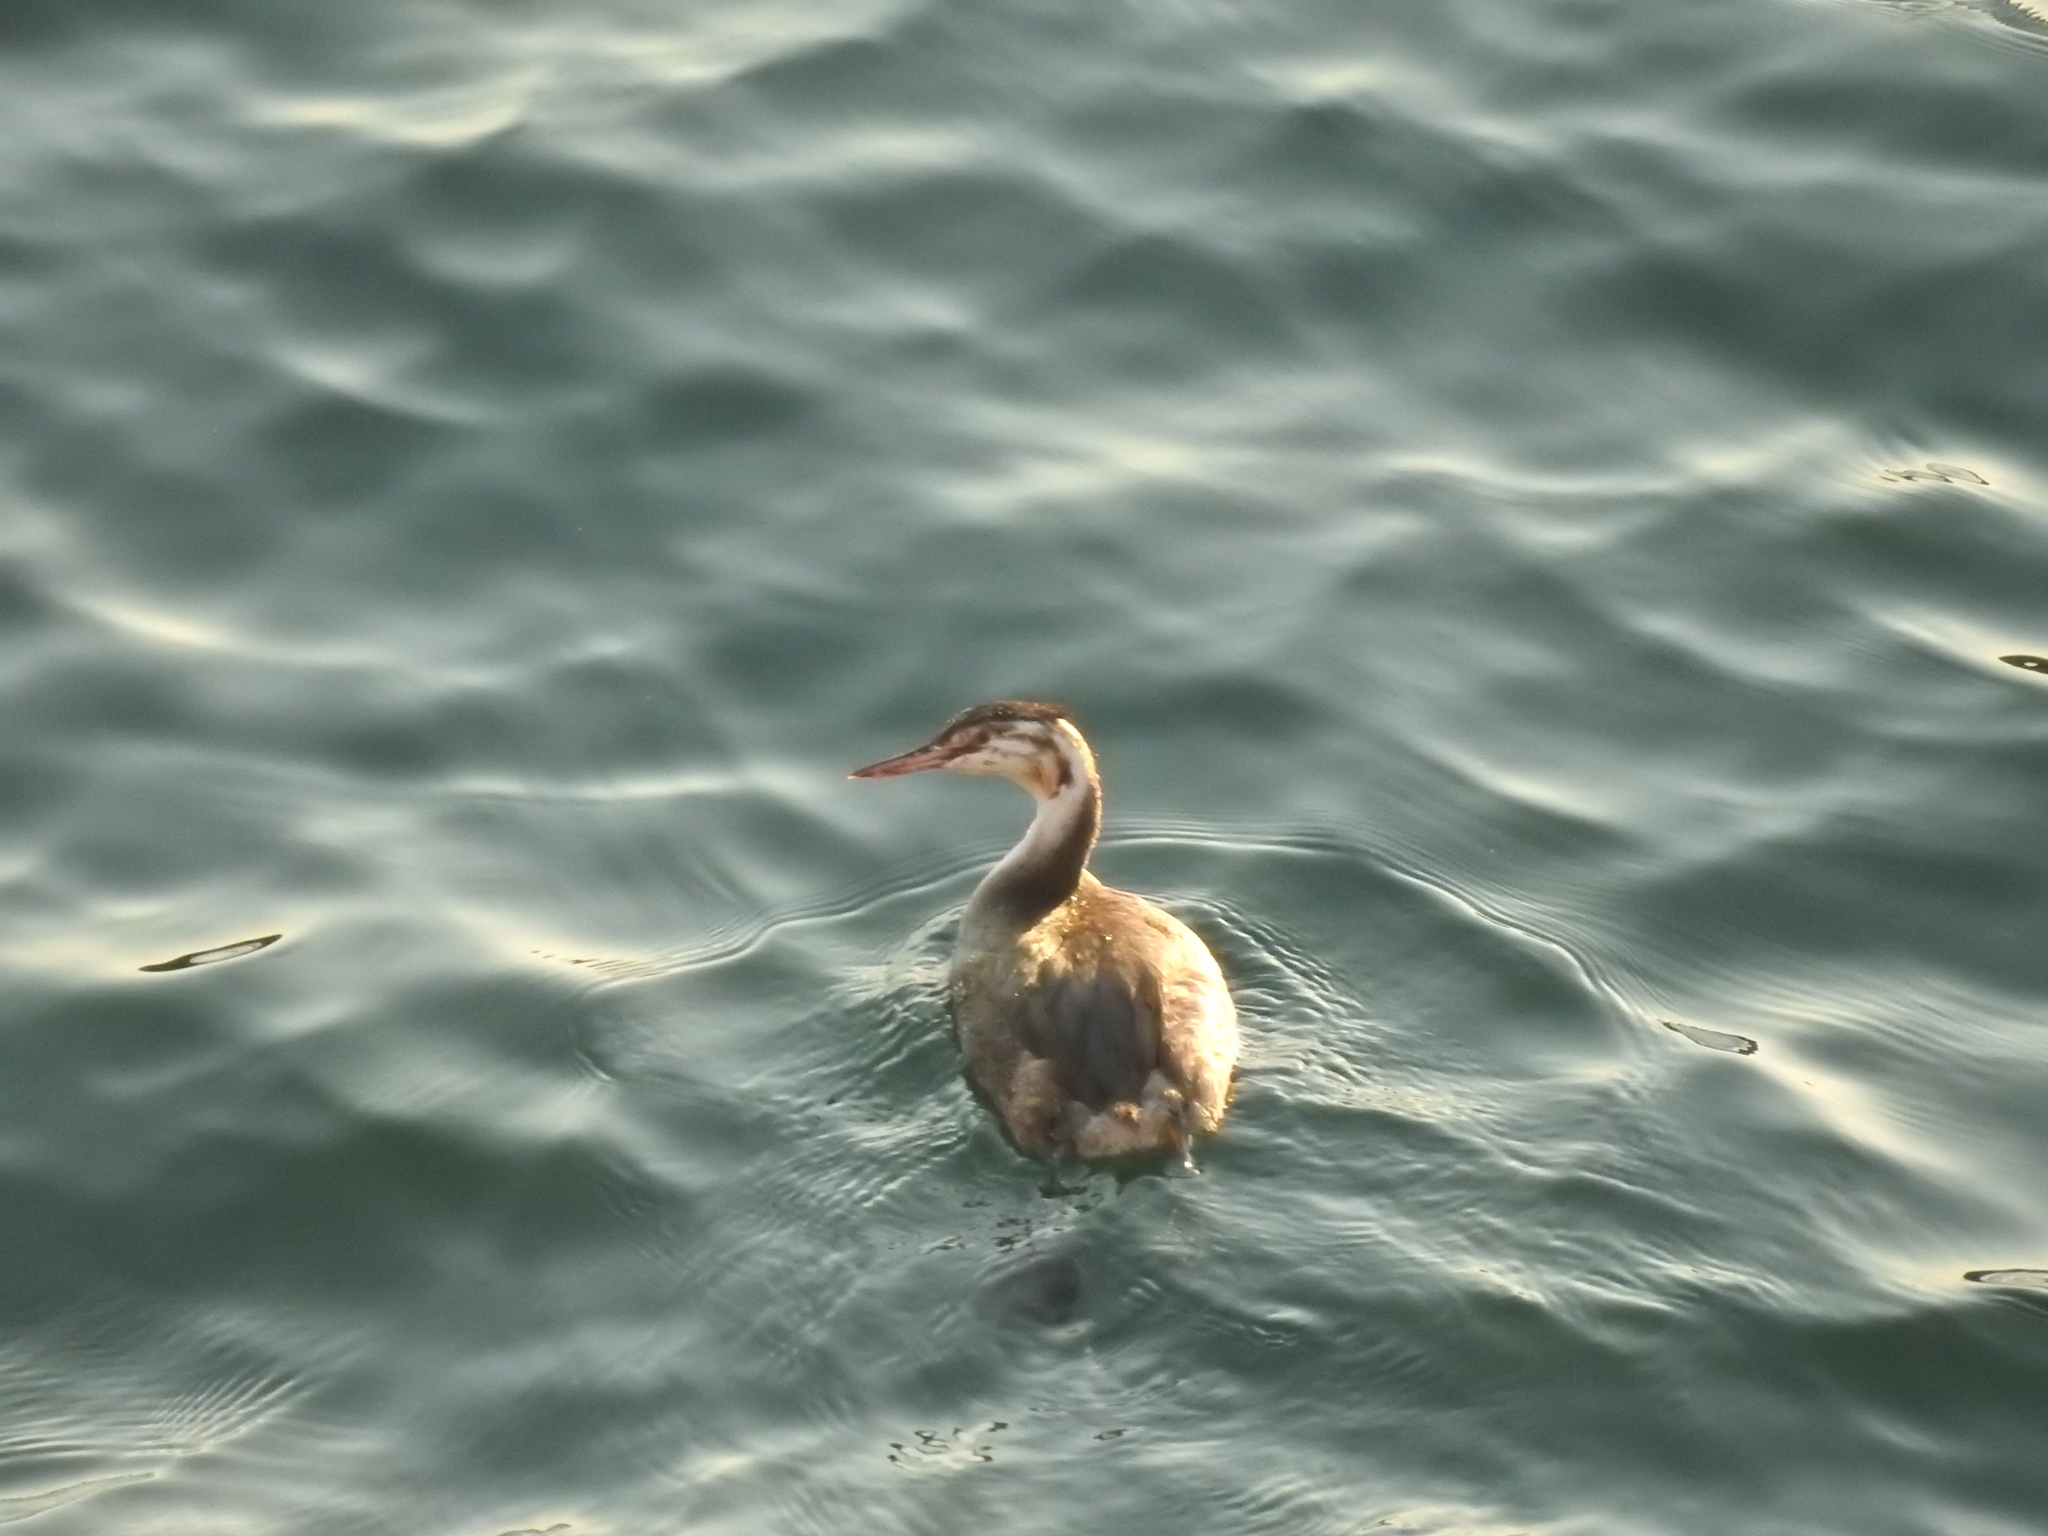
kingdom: Animalia
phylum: Chordata
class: Aves
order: Podicipediformes
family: Podicipedidae
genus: Podiceps
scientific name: Podiceps cristatus
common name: Great crested grebe
